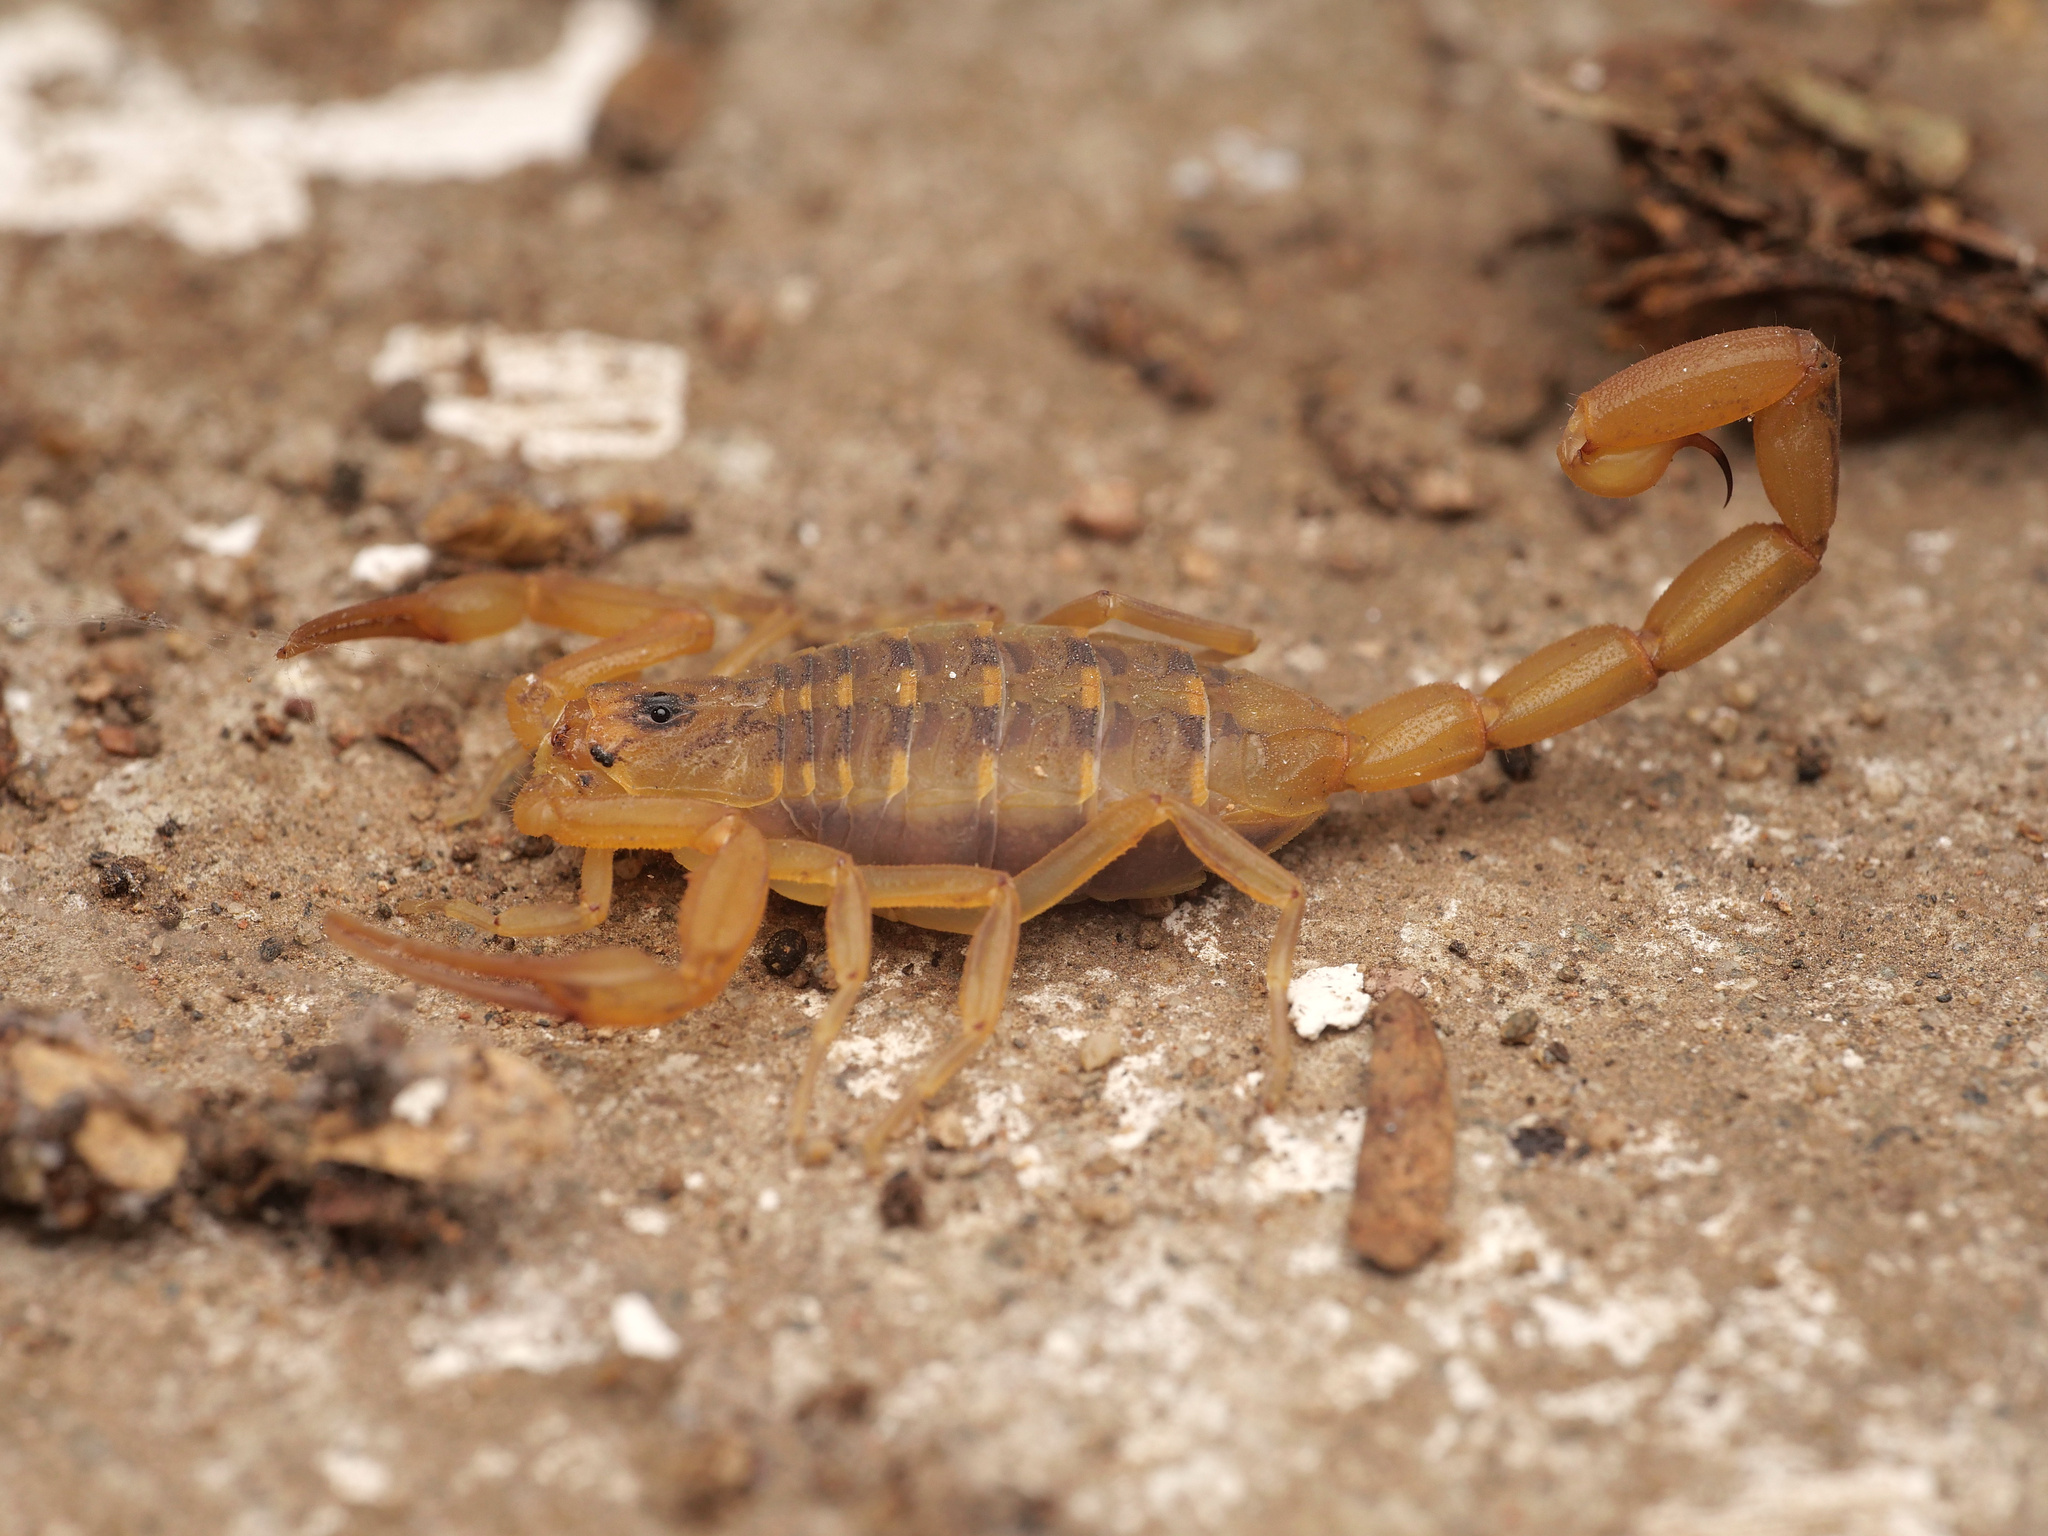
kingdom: Animalia
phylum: Arthropoda
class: Arachnida
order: Scorpiones
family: Buthidae
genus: Centruroides
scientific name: Centruroides exilicauda
